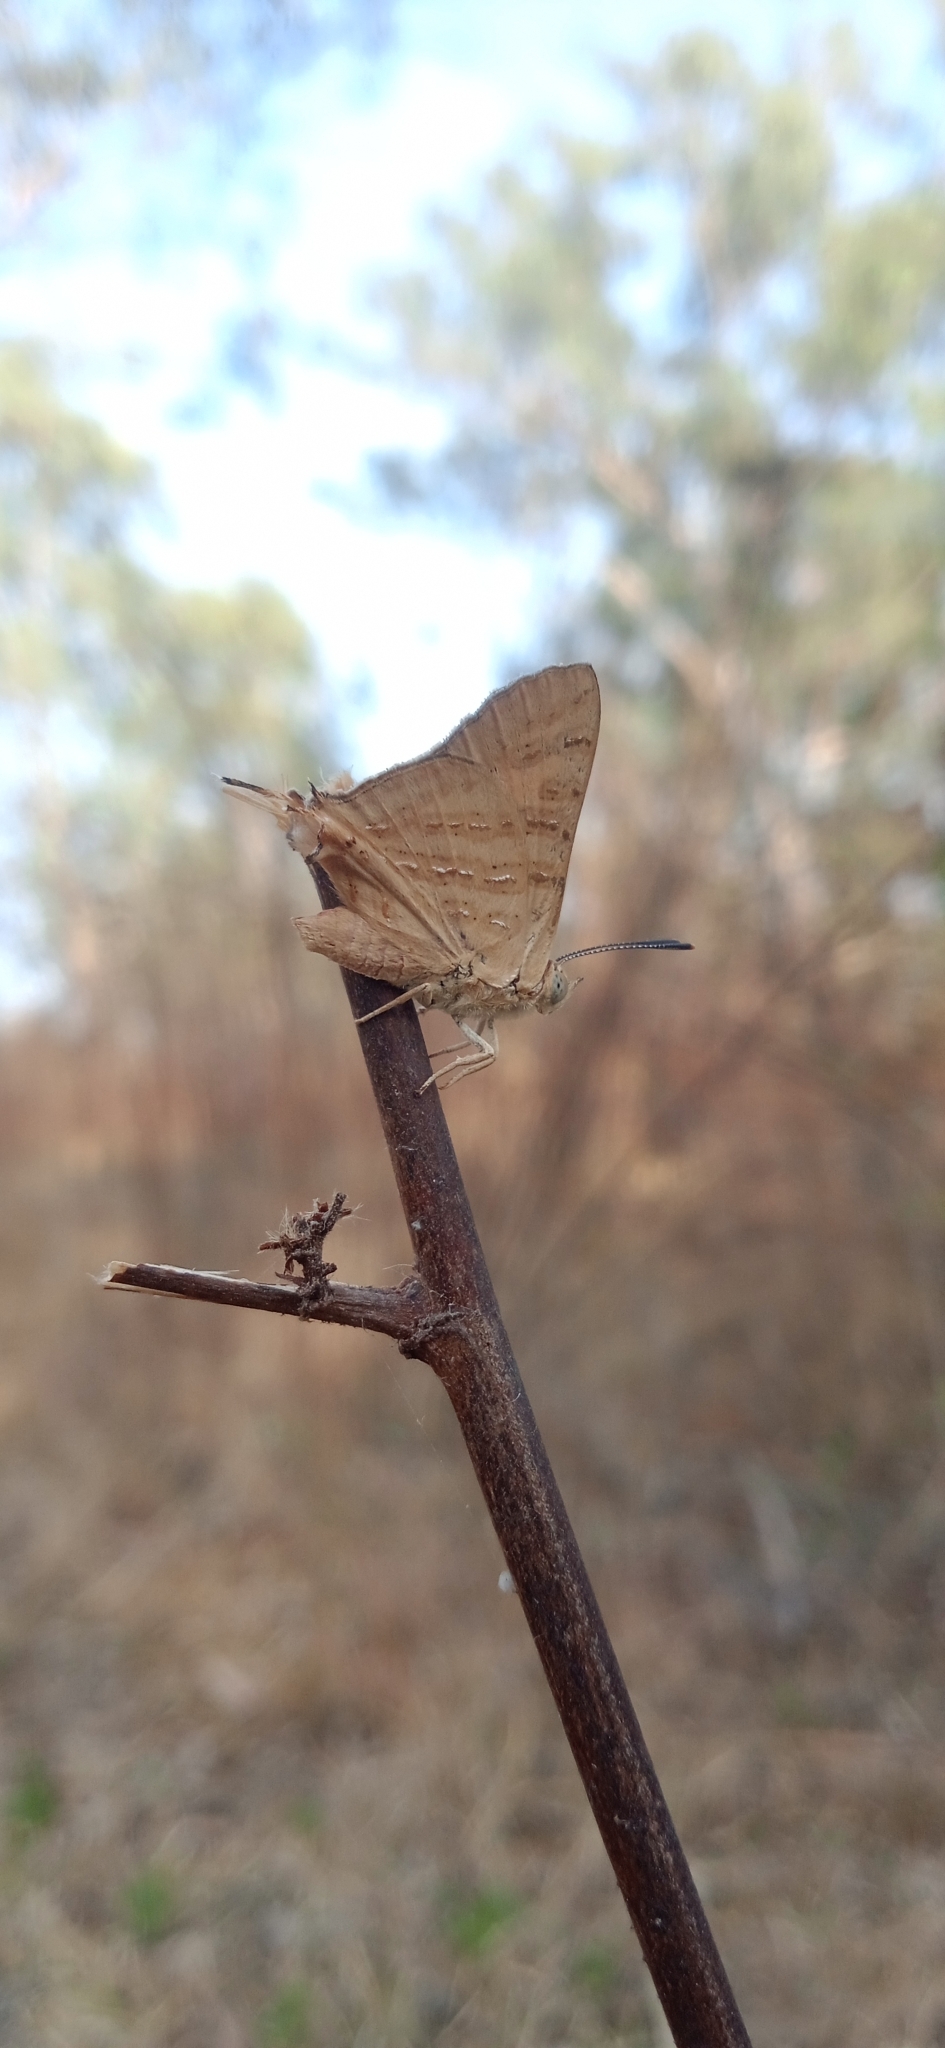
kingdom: Animalia
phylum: Arthropoda
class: Insecta
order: Lepidoptera
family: Lycaenidae
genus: Cigaritis
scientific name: Cigaritis
